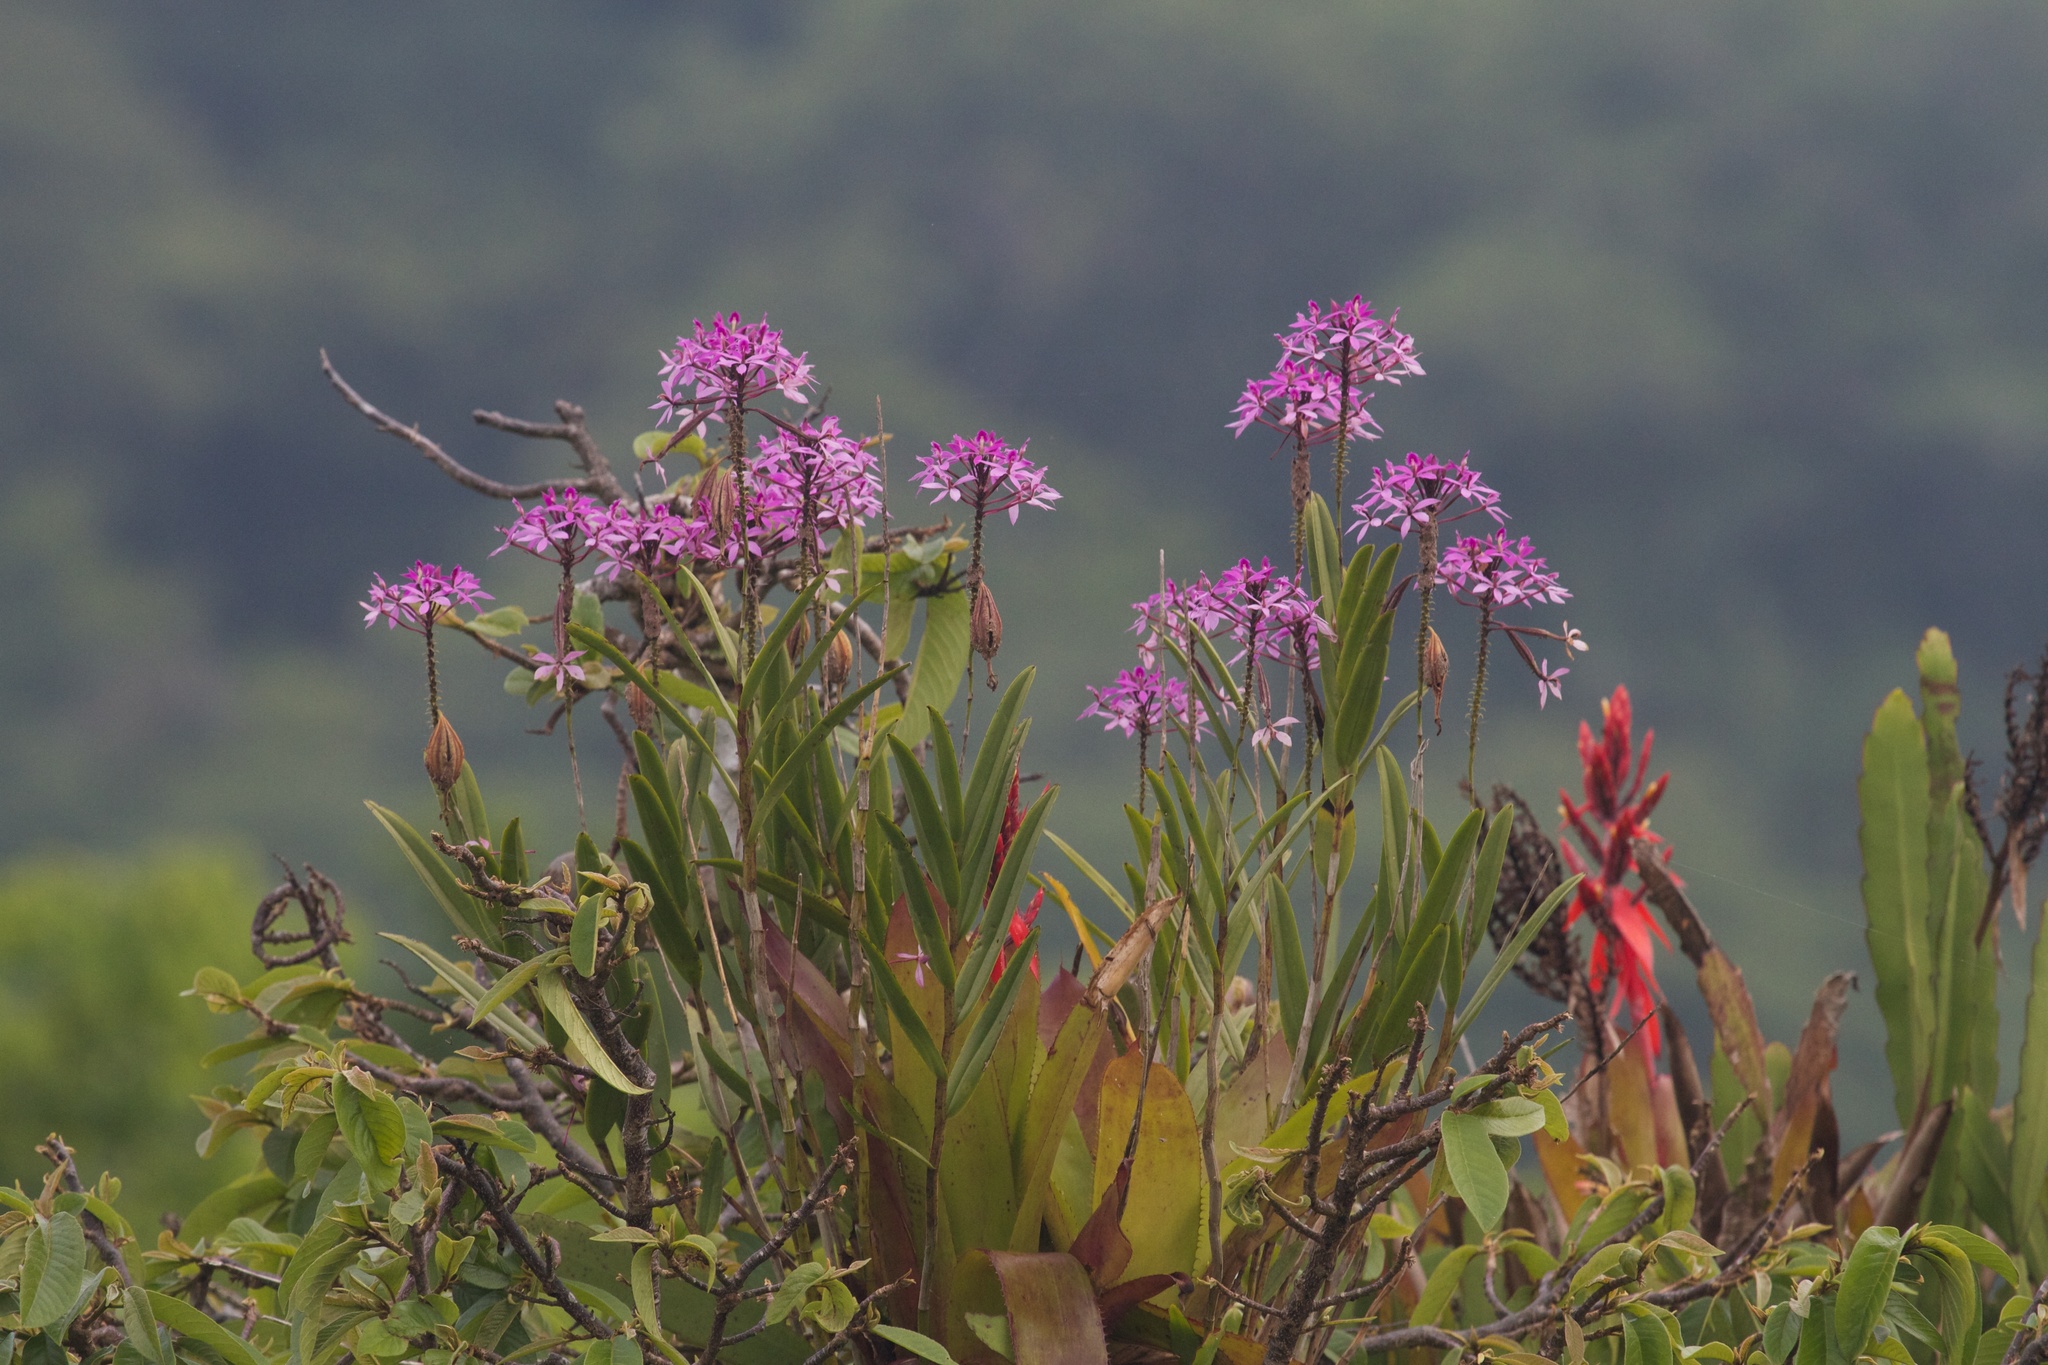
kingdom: Plantae
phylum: Tracheophyta
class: Liliopsida
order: Asparagales
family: Orchidaceae
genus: Epidendrum
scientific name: Epidendrum flexuosum
